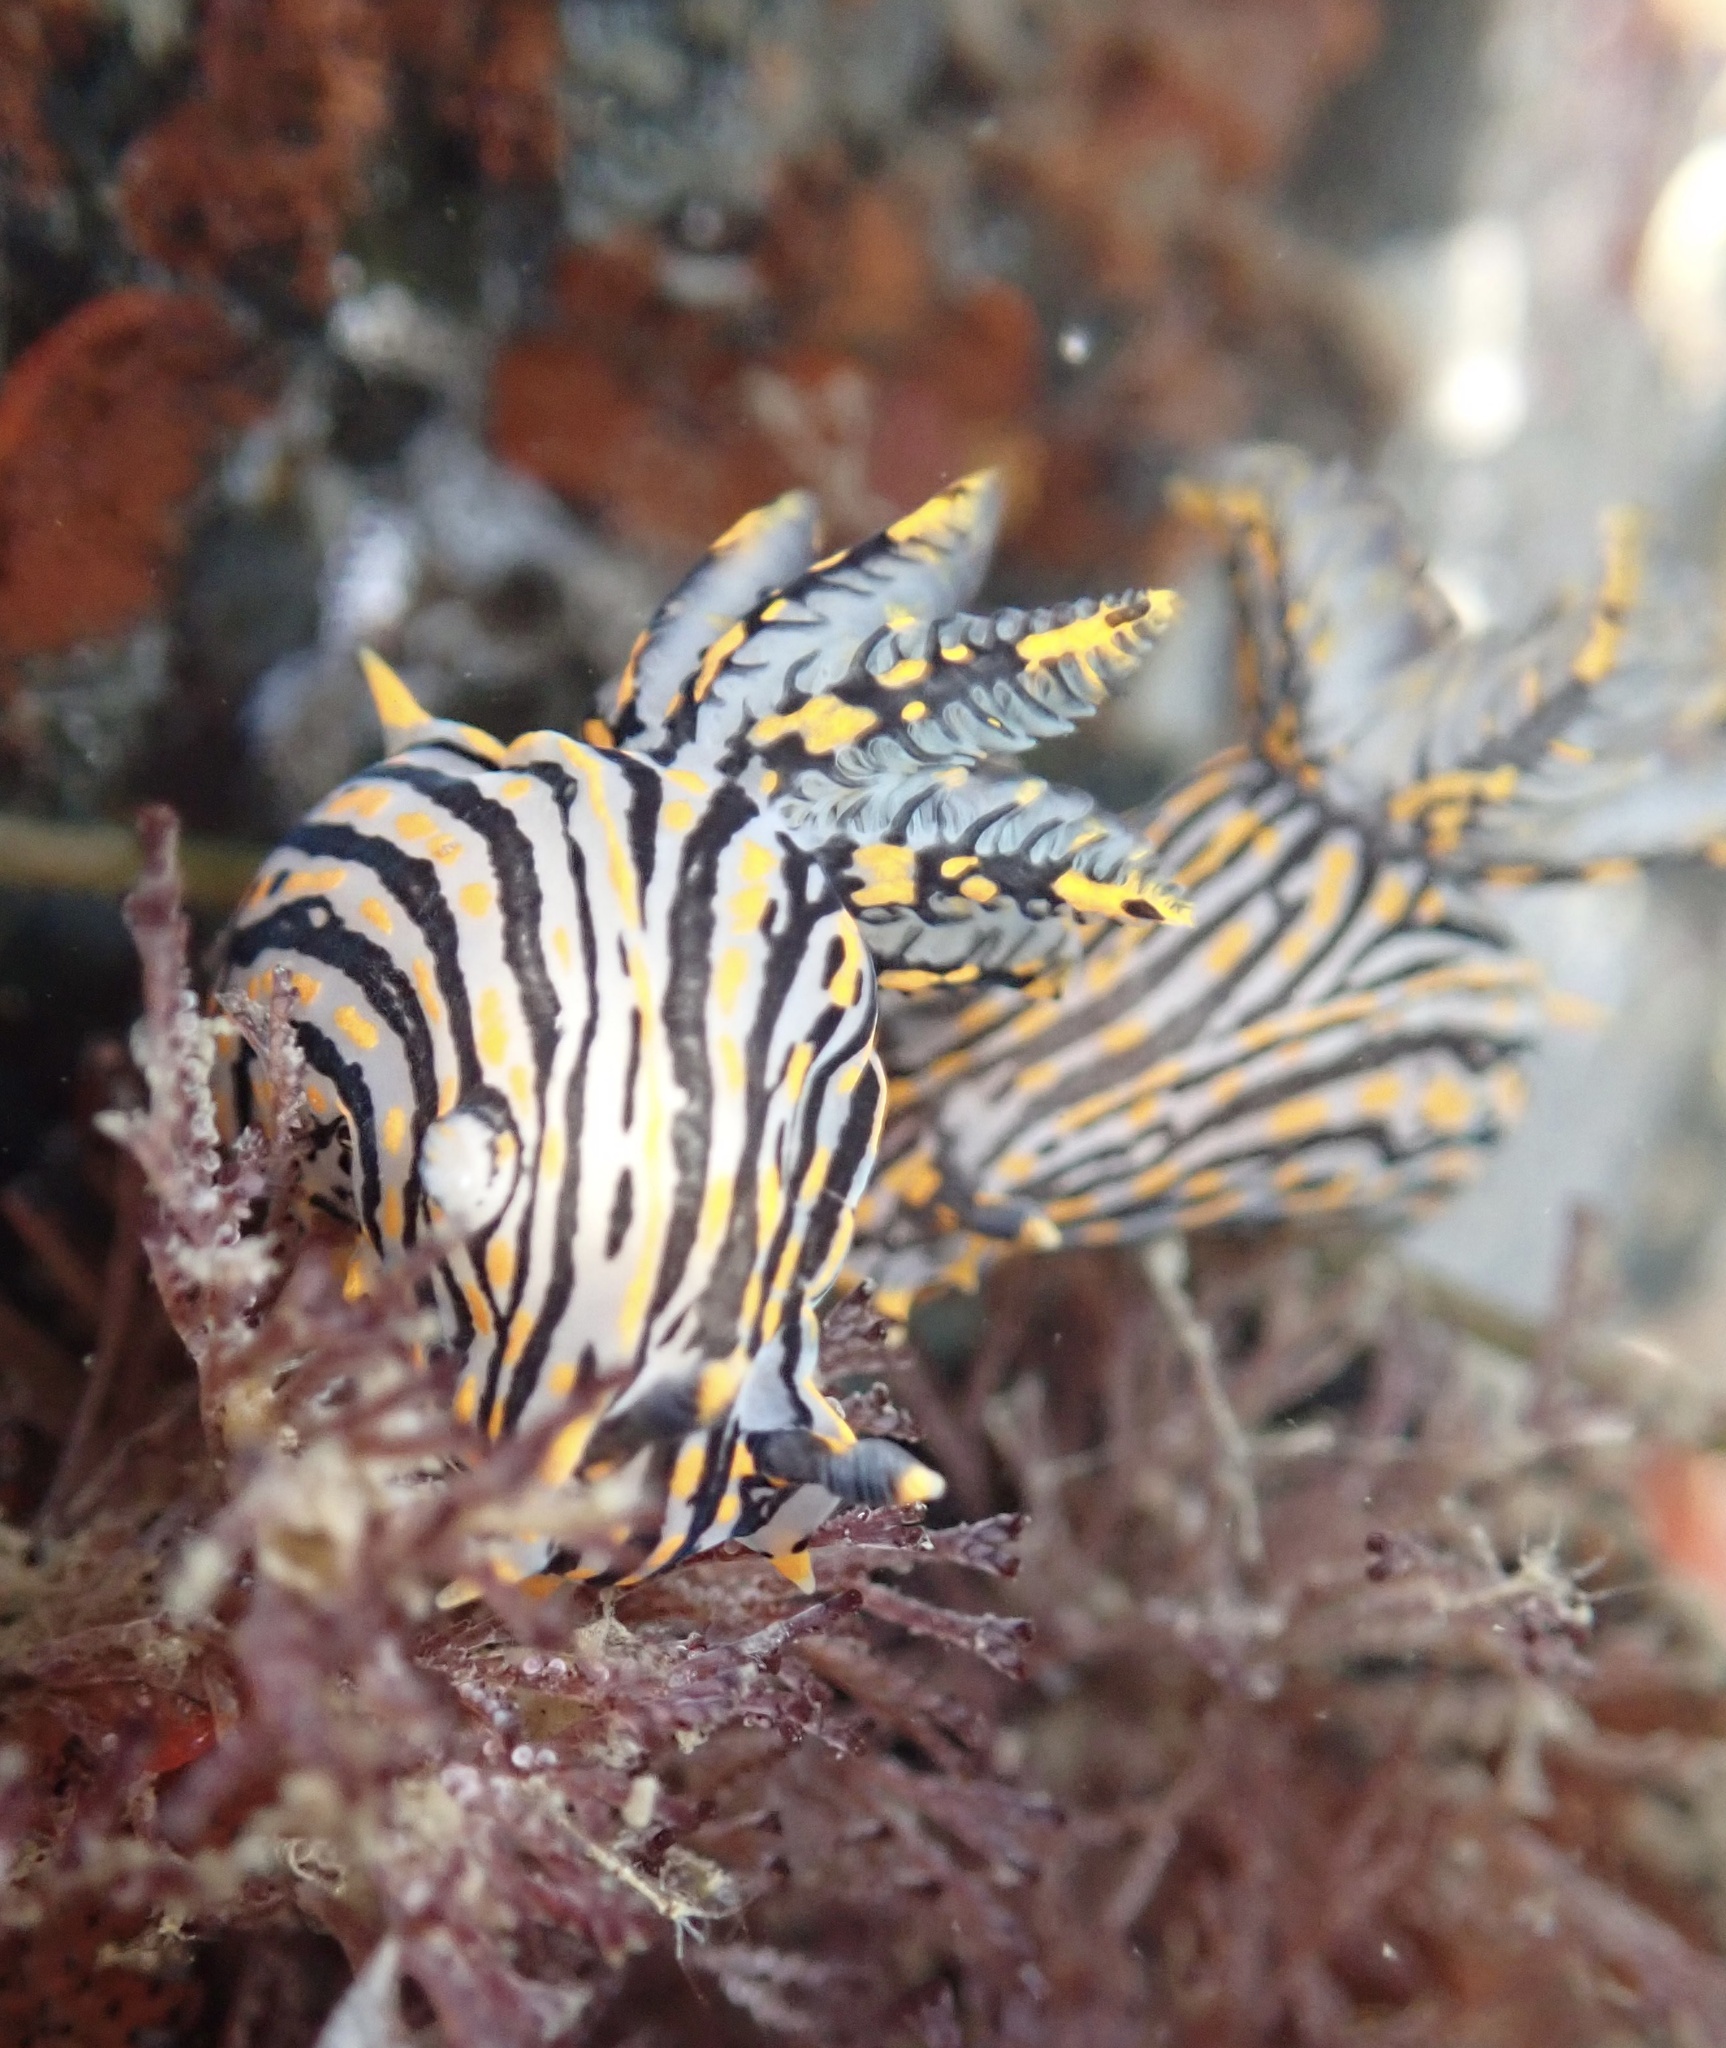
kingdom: Animalia
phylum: Mollusca
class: Gastropoda
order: Nudibranchia
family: Polyceridae
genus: Polycera
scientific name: Polycera atra
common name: Orange-spike polycera
